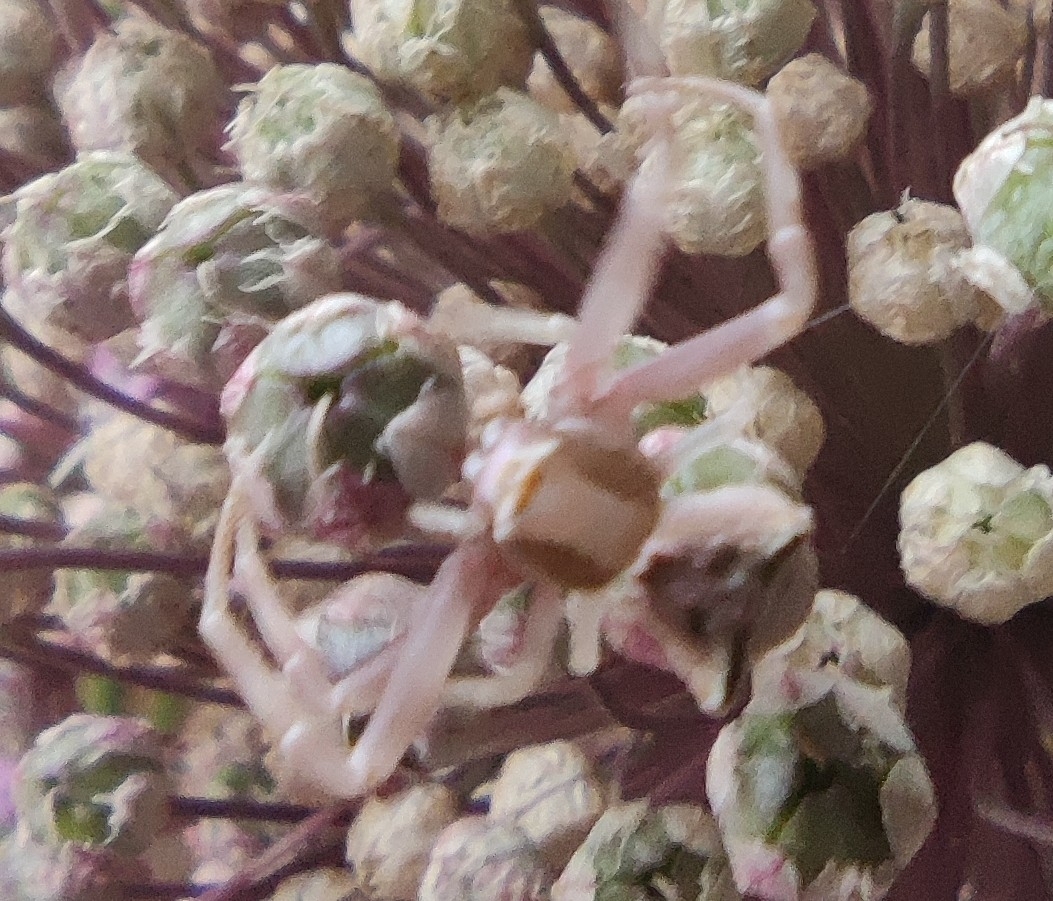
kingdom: Animalia
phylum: Arthropoda
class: Arachnida
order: Araneae
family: Thomisidae
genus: Thomisus
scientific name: Thomisus onustus
